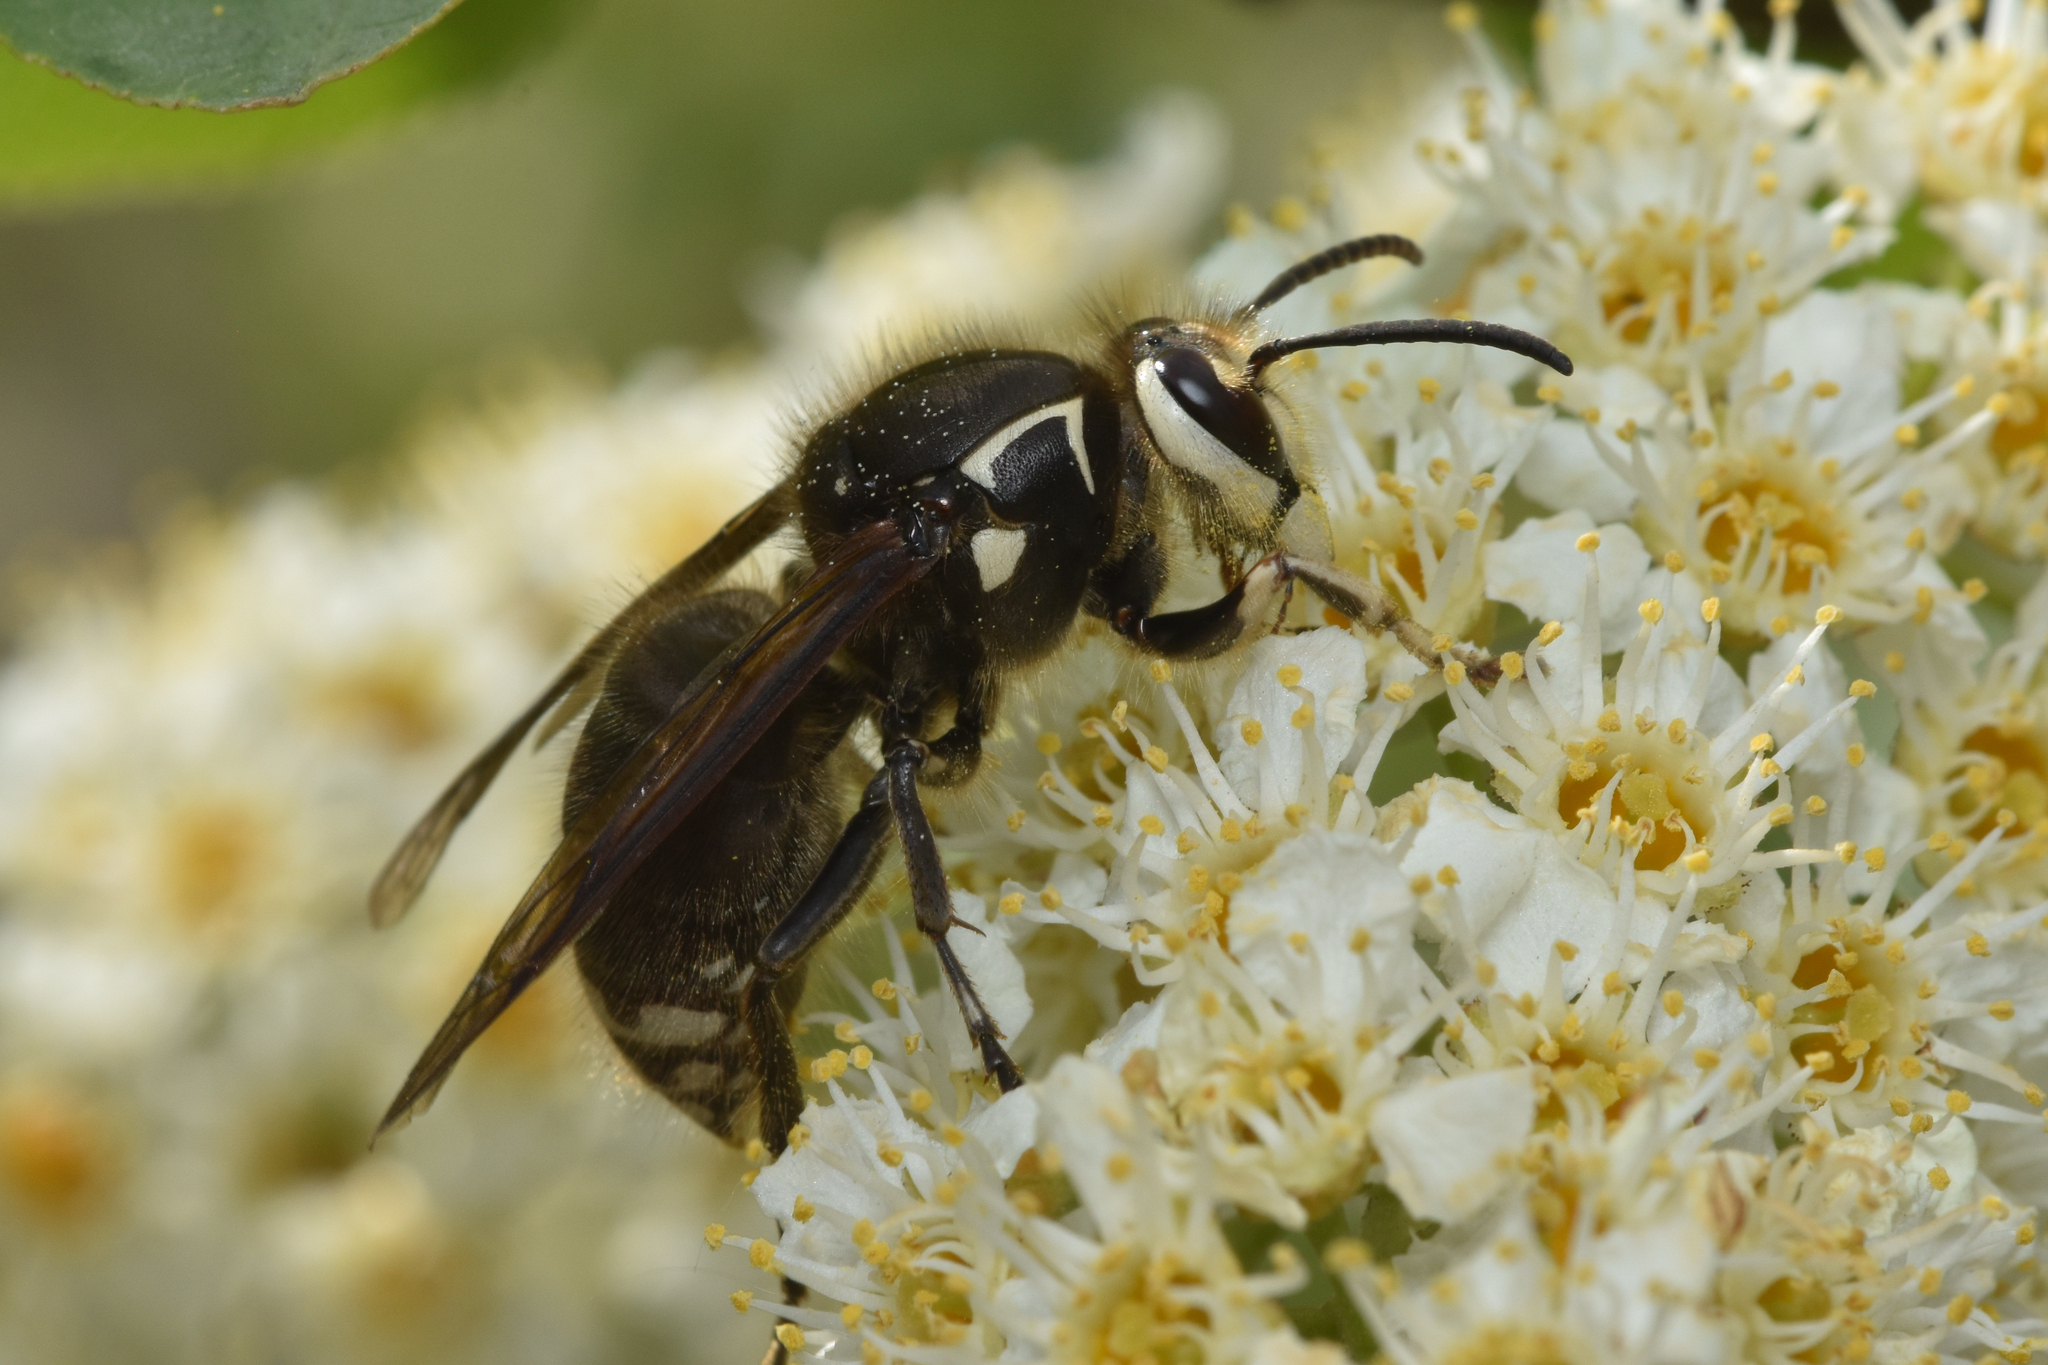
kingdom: Animalia
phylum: Arthropoda
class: Insecta
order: Hymenoptera
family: Vespidae
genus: Dolichovespula
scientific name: Dolichovespula maculata
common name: Bald-faced hornet
